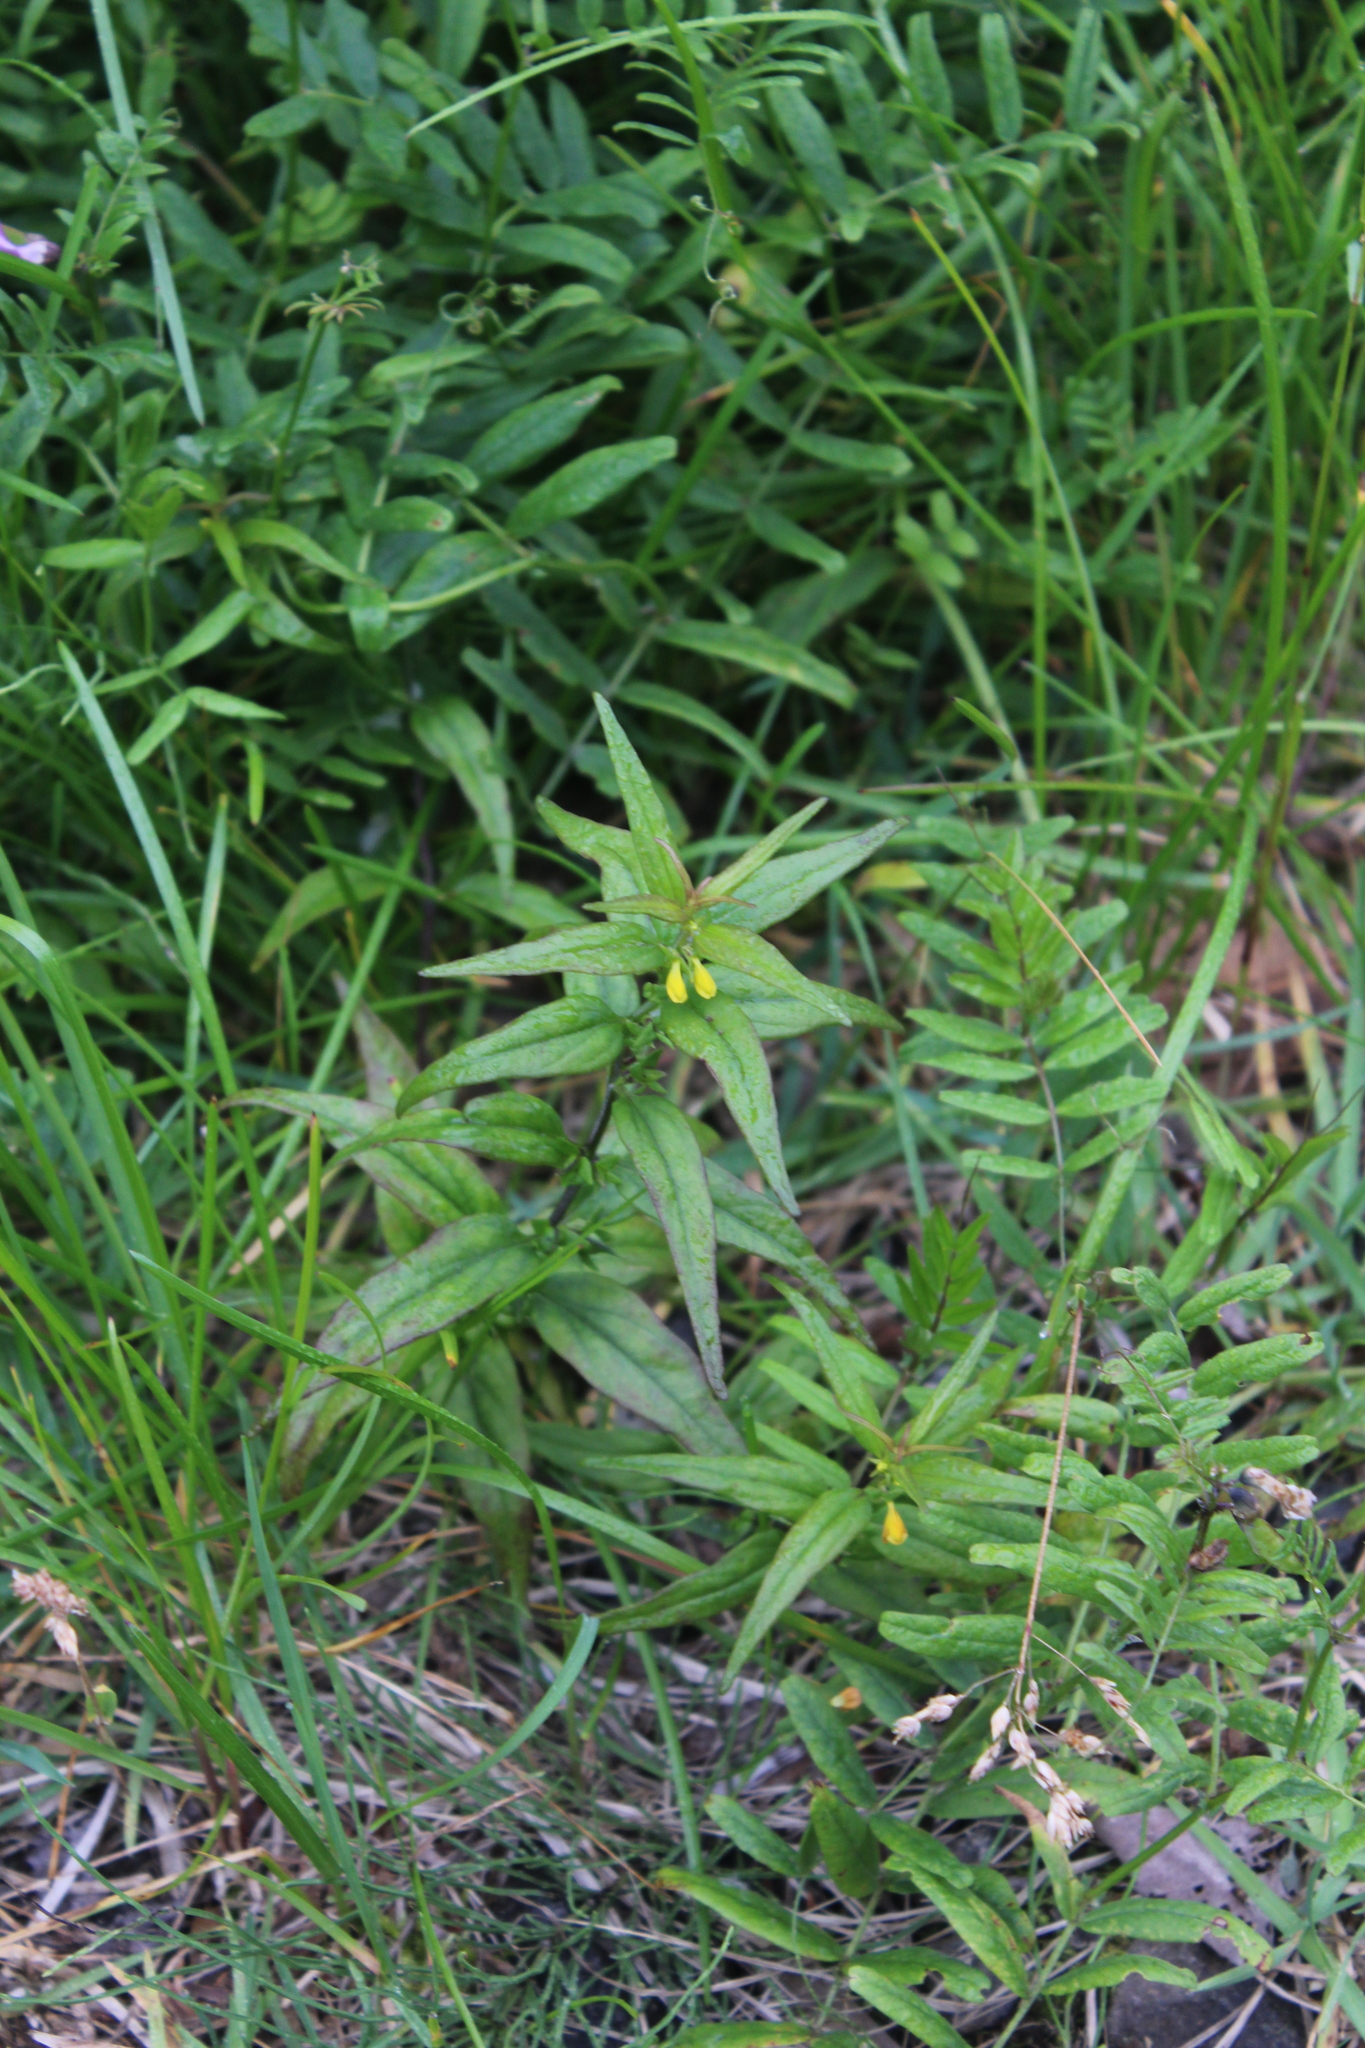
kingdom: Plantae
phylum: Tracheophyta
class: Magnoliopsida
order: Lamiales
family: Orobanchaceae
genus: Melampyrum
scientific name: Melampyrum sylvaticum
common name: Small cow-wheat
